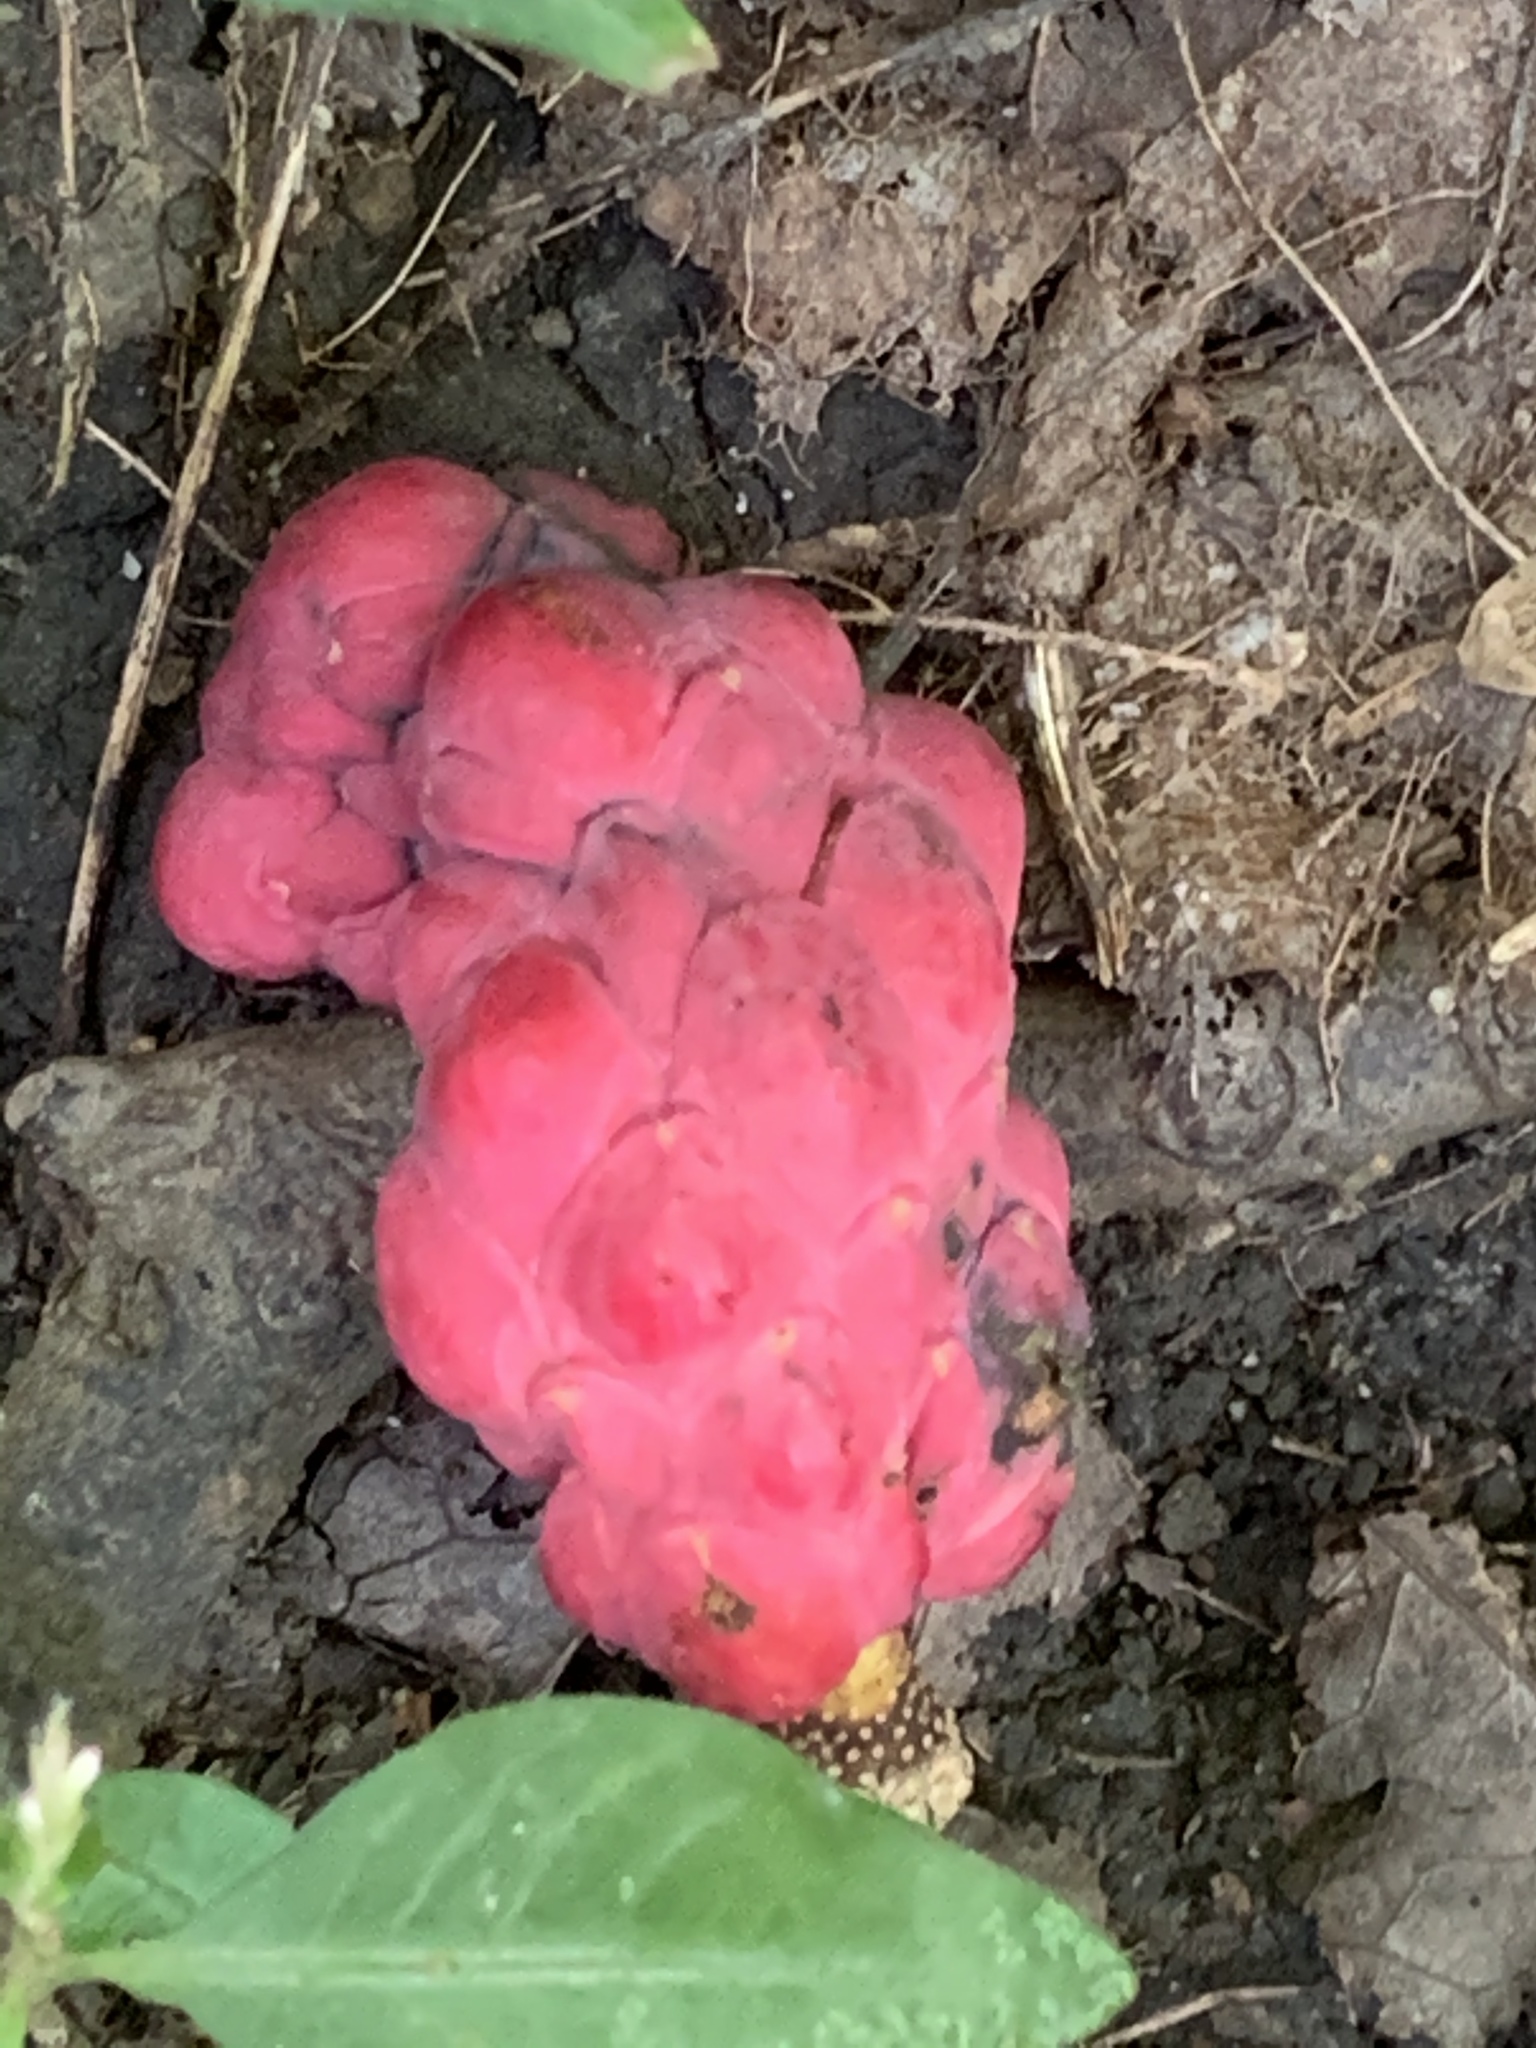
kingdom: Plantae
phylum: Tracheophyta
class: Magnoliopsida
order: Magnoliales
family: Magnoliaceae
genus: Magnolia
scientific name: Magnolia acuminata
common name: Cucumber magnolia
